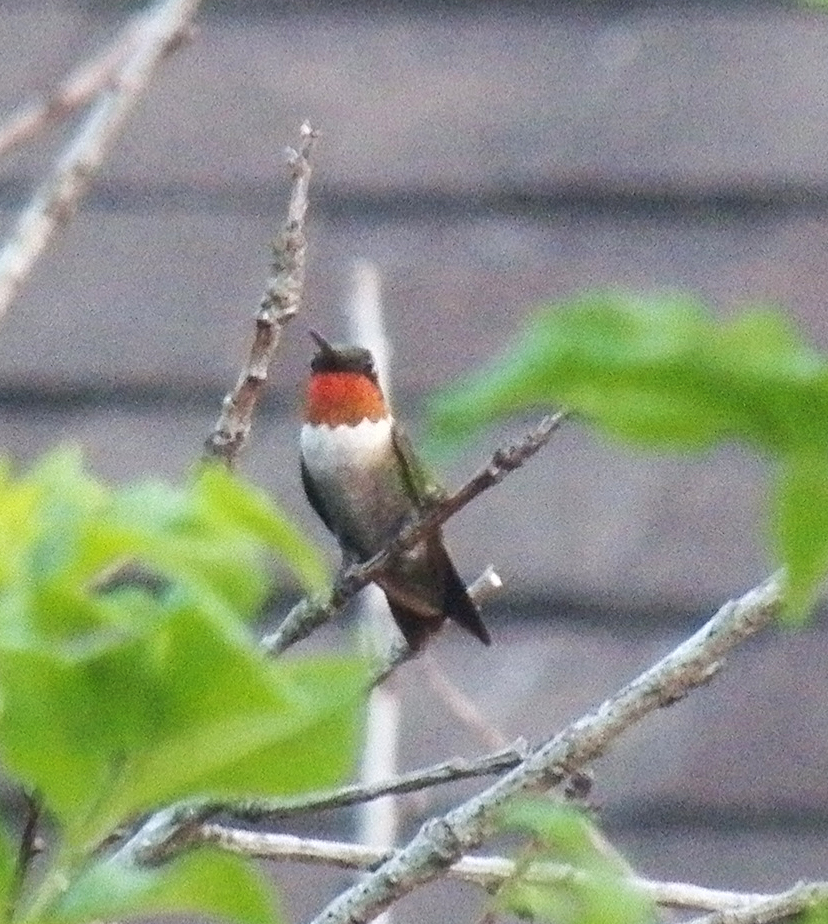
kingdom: Animalia
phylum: Chordata
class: Aves
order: Apodiformes
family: Trochilidae
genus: Archilochus
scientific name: Archilochus colubris
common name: Ruby-throated hummingbird
